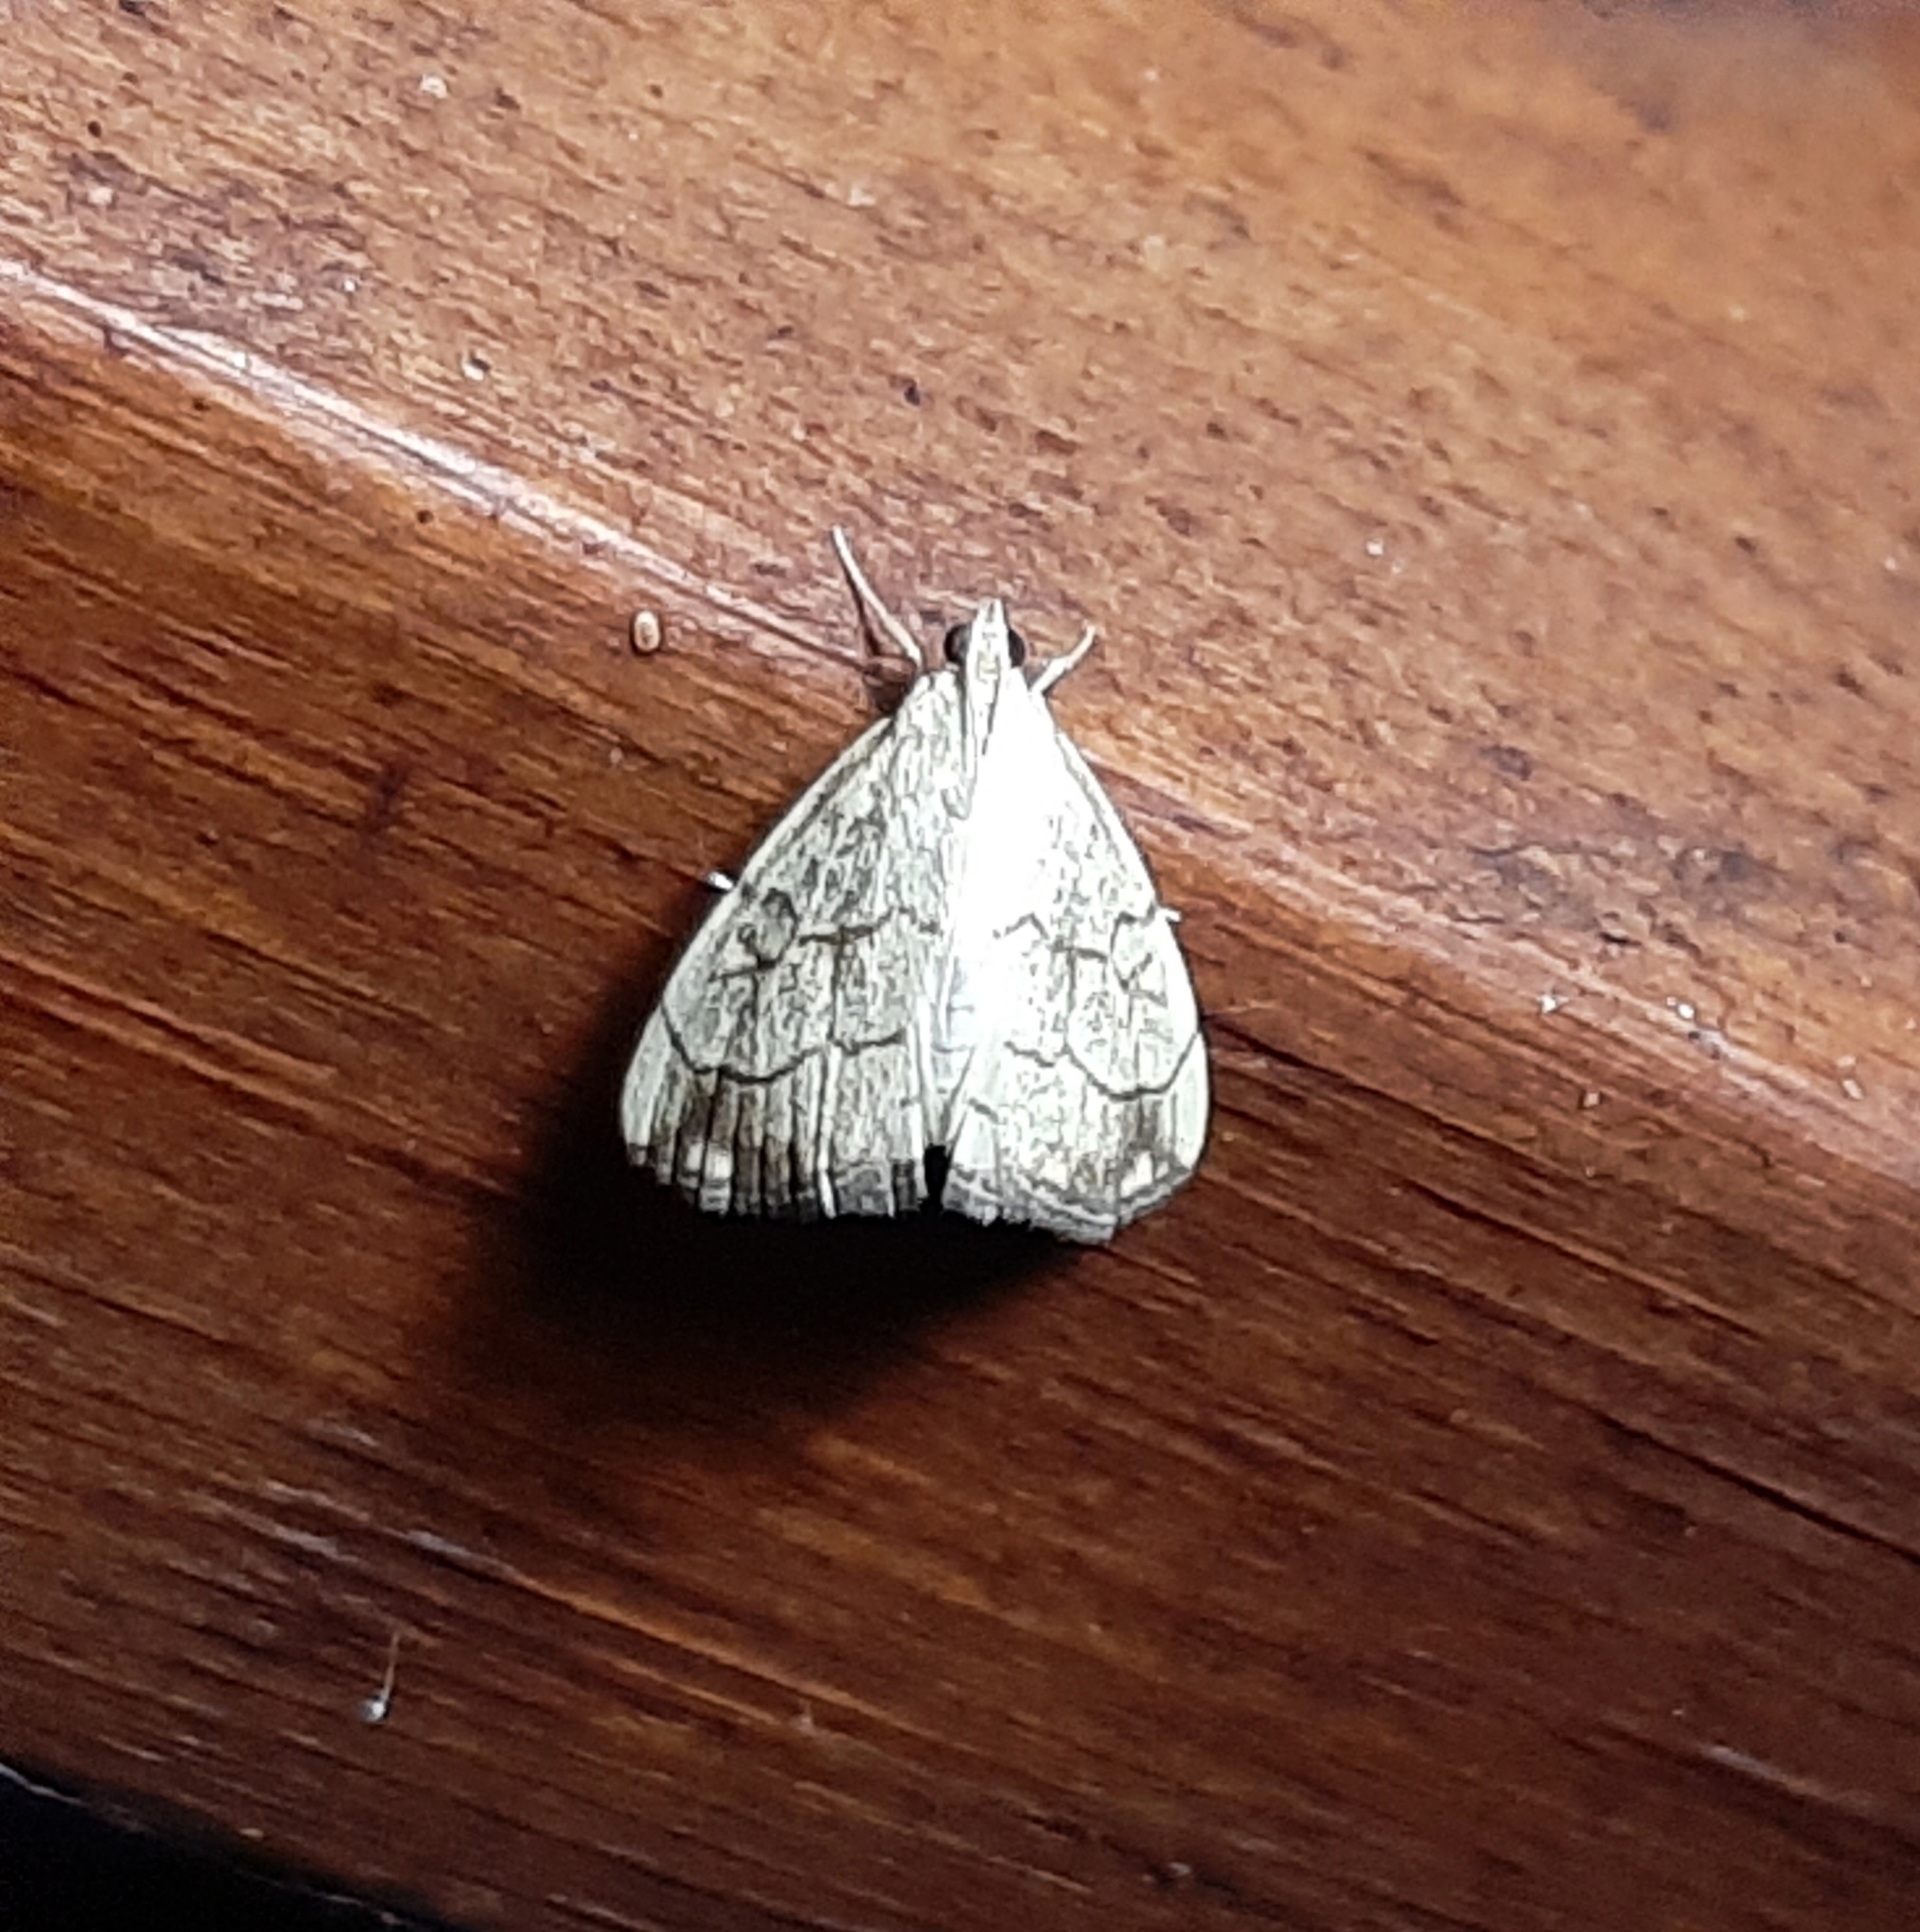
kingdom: Animalia
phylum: Arthropoda
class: Insecta
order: Lepidoptera
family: Crambidae
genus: Evergestis
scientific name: Evergestis pallidata
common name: Chequered pearl
